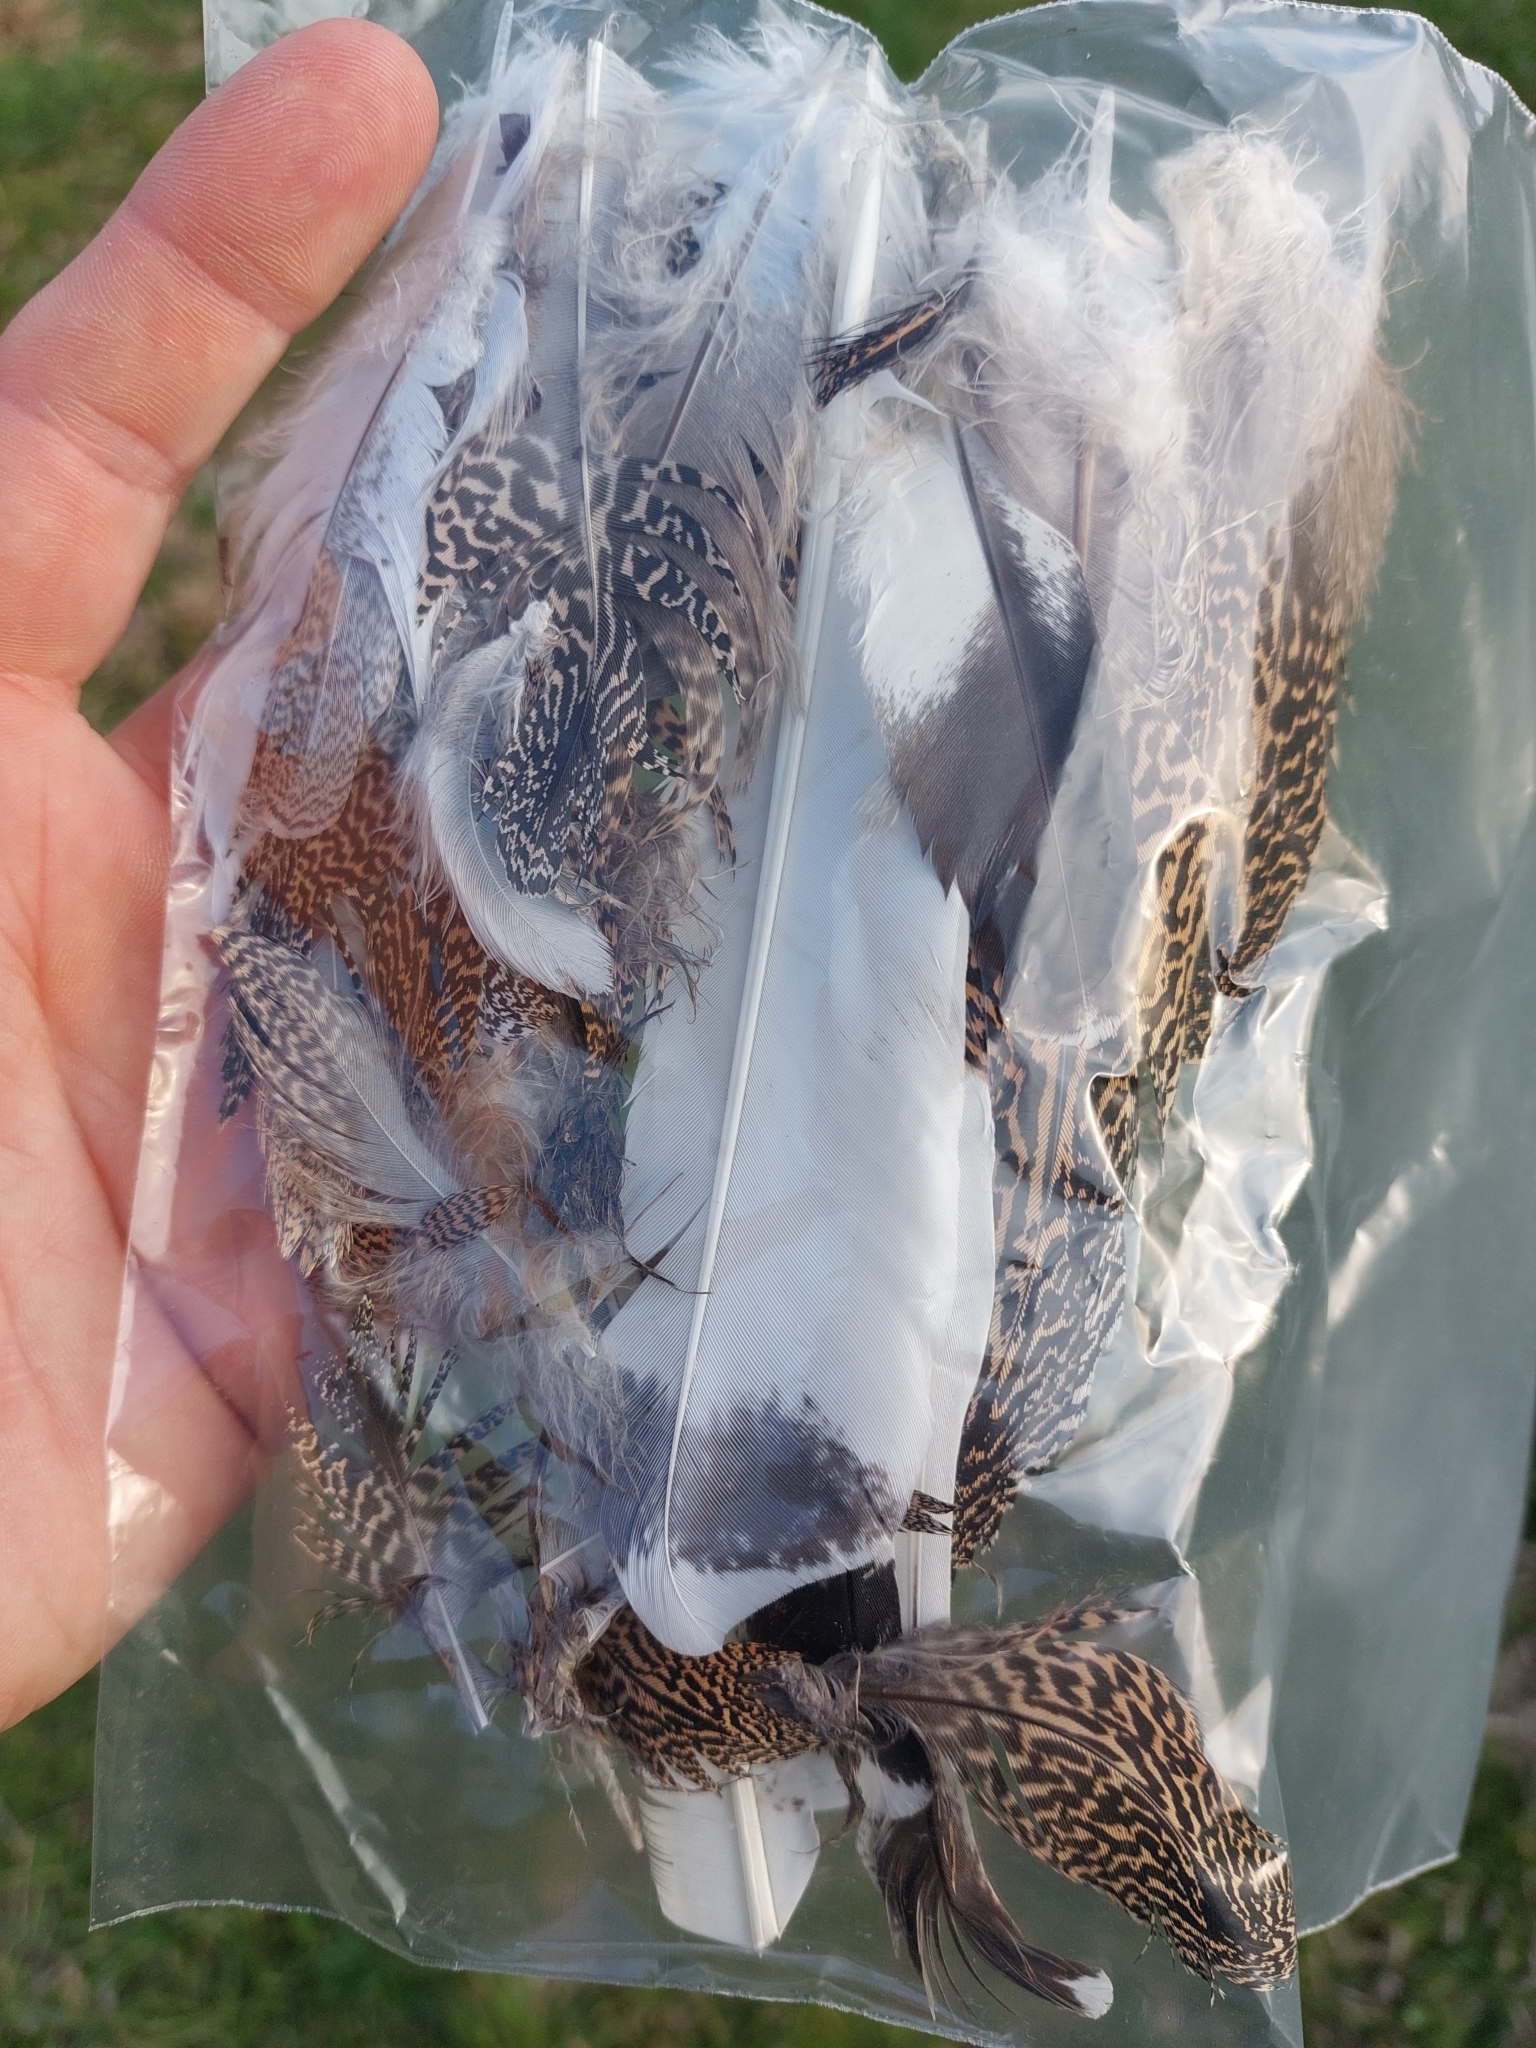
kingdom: Animalia
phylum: Chordata
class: Aves
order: Otidiformes
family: Otididae
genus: Tetrax
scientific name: Tetrax tetrax
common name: Little bustard
